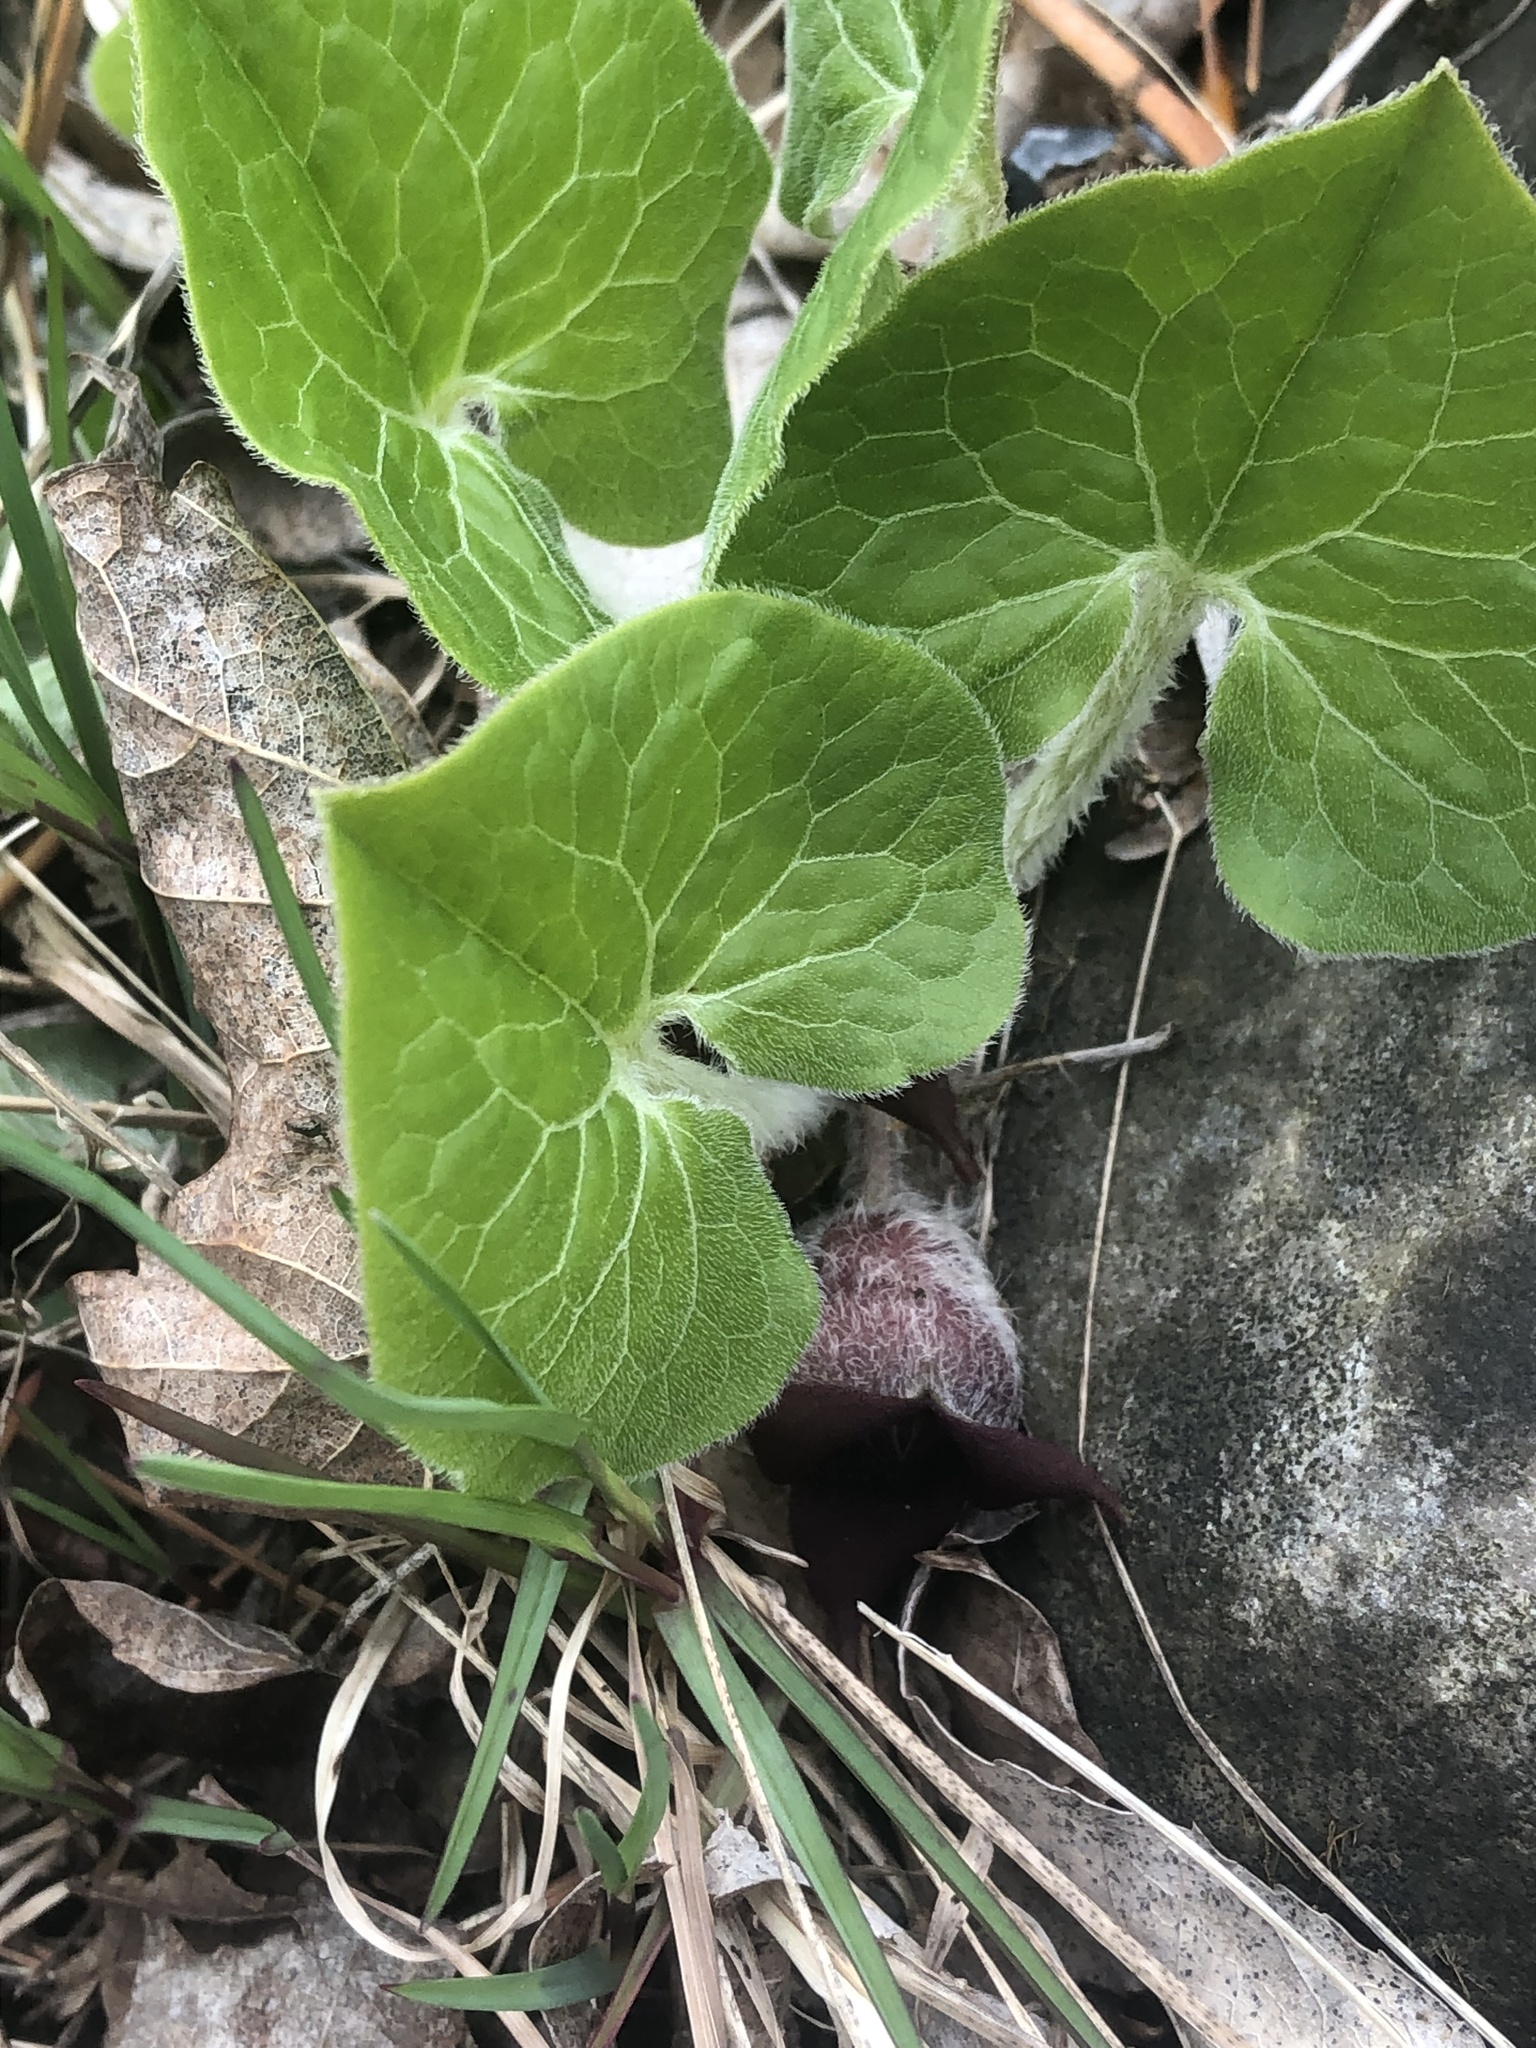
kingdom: Plantae
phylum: Tracheophyta
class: Magnoliopsida
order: Piperales
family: Aristolochiaceae
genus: Asarum
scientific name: Asarum canadense
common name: Wild ginger
